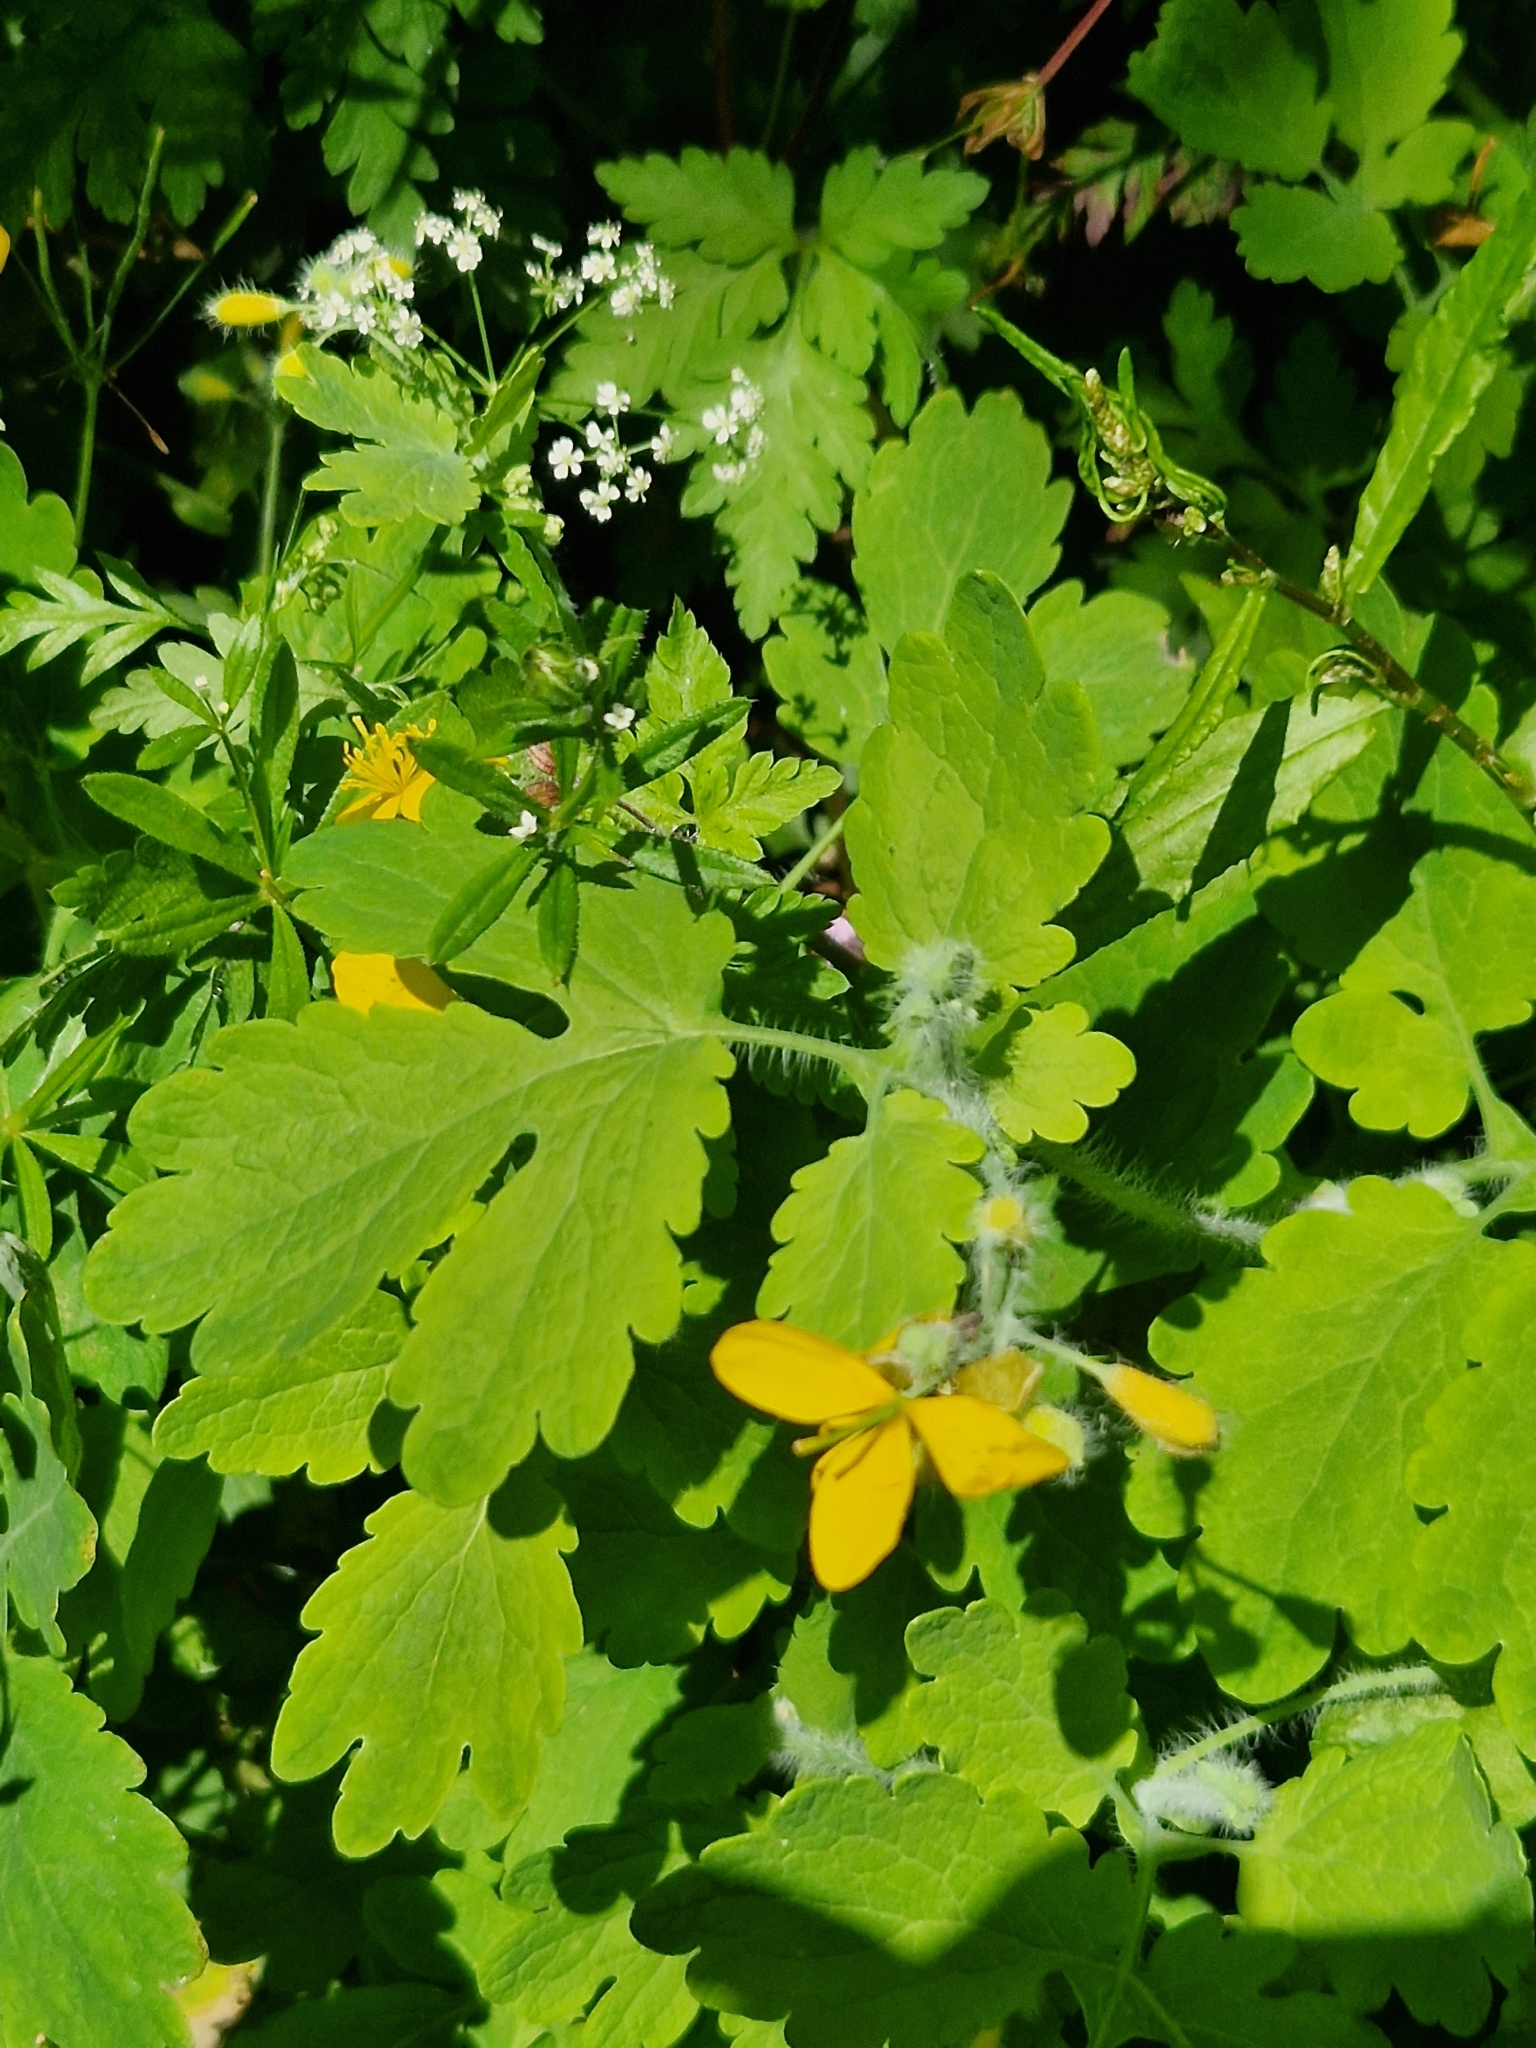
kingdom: Plantae
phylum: Tracheophyta
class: Magnoliopsida
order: Ranunculales
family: Papaveraceae
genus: Chelidonium
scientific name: Chelidonium majus
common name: Greater celandine
